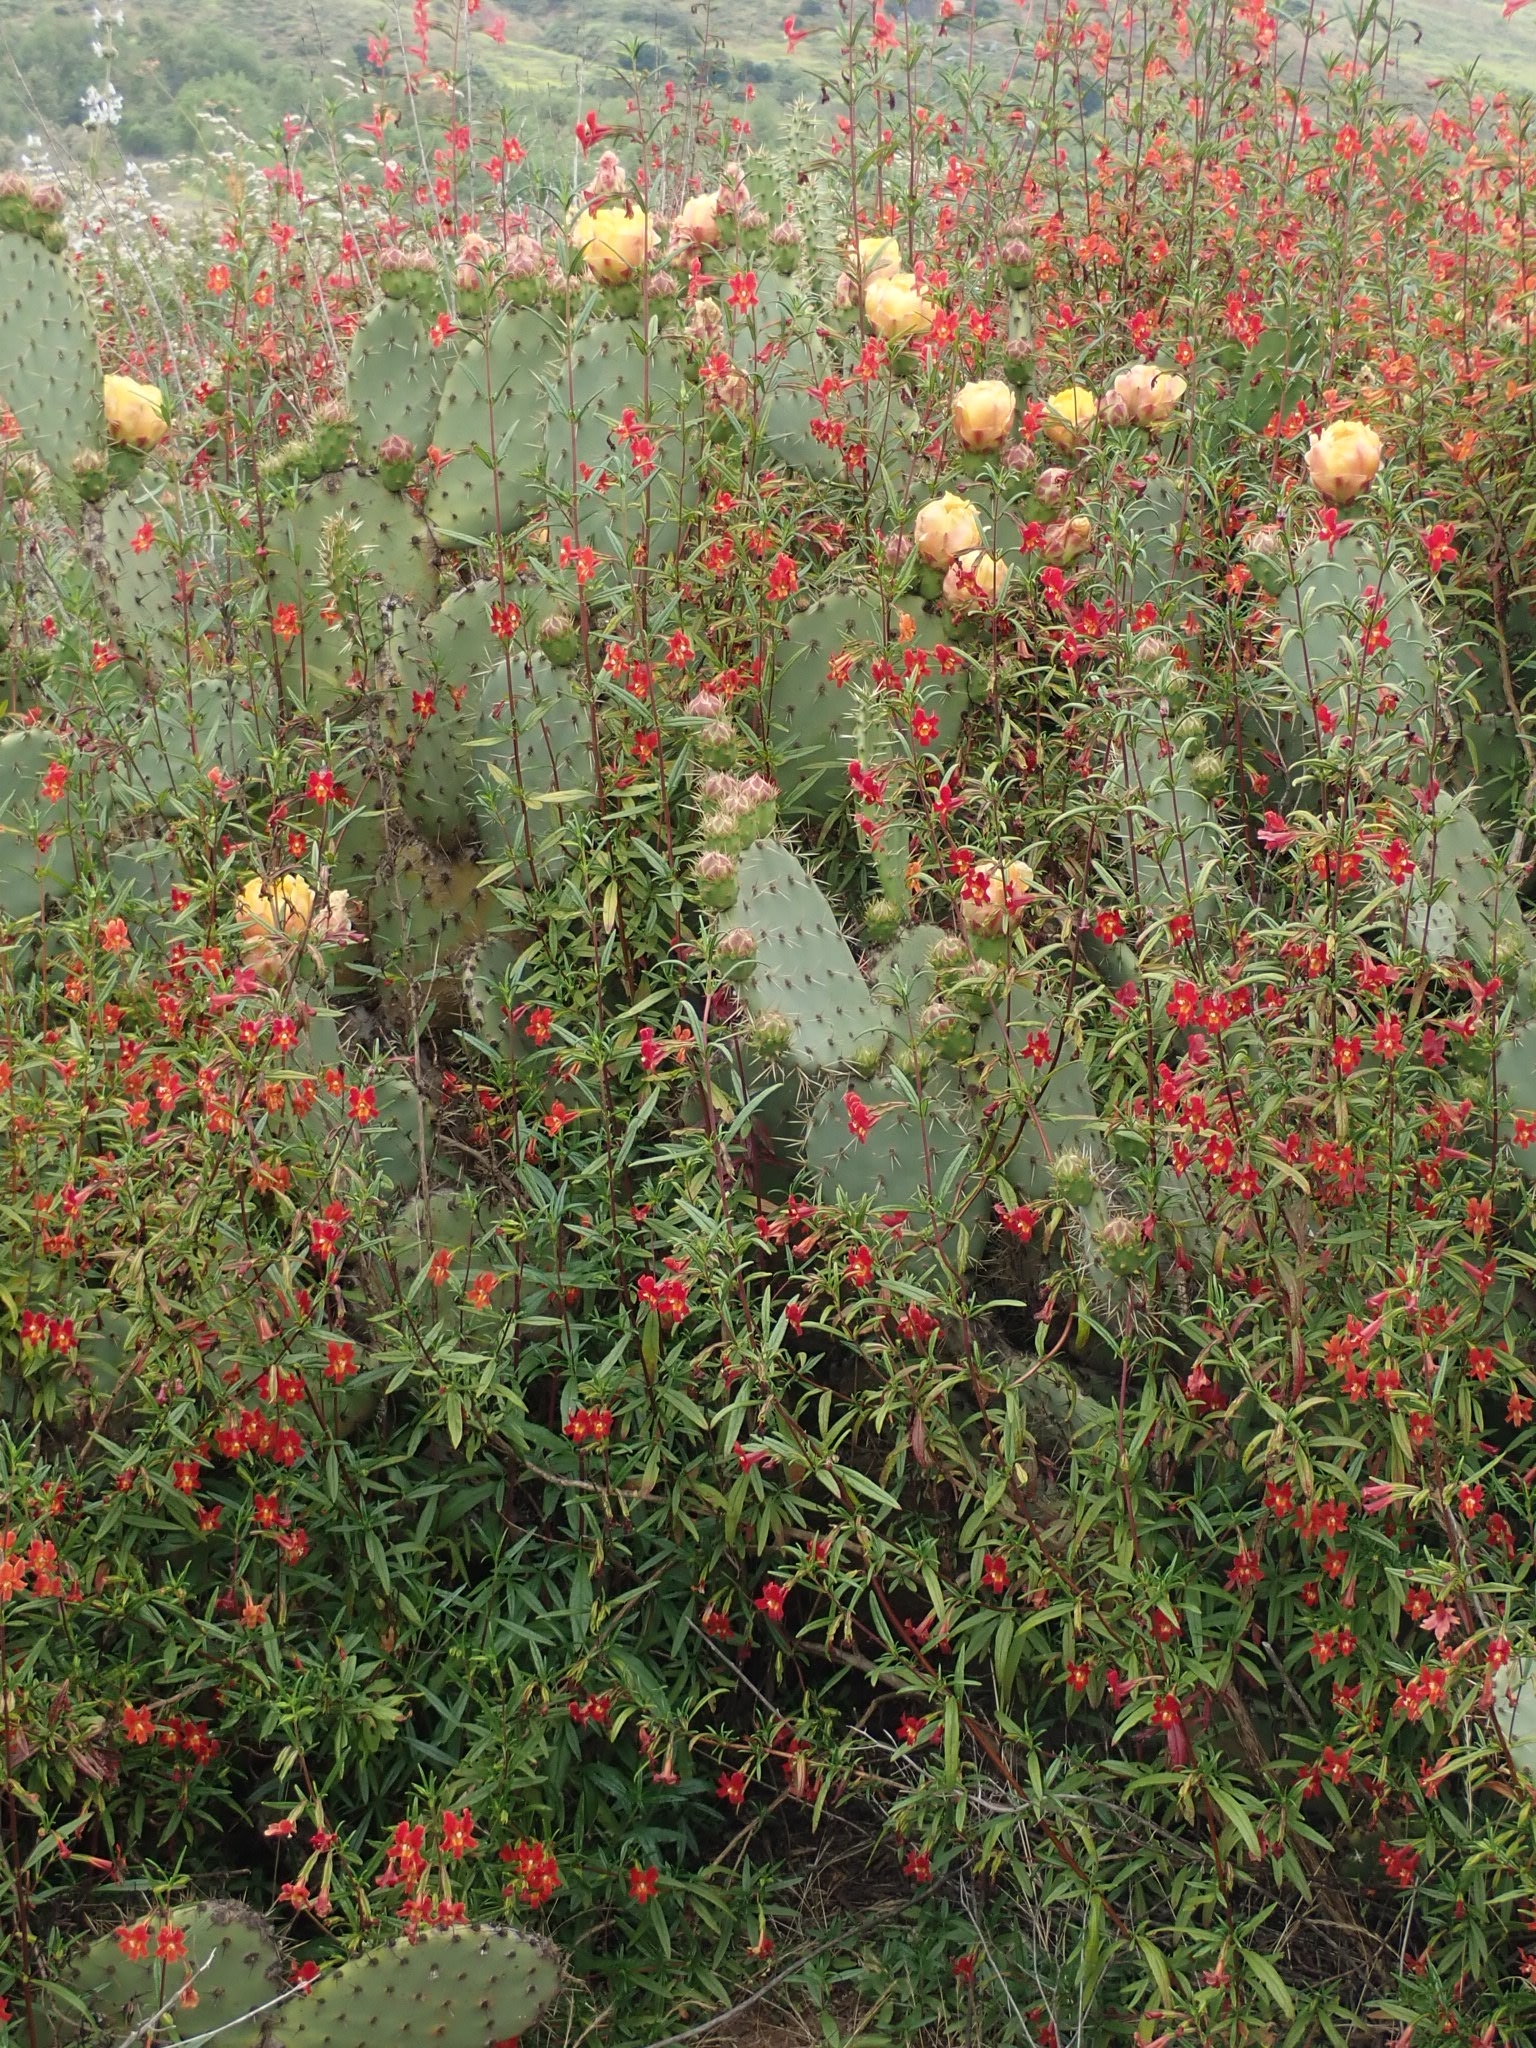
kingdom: Plantae
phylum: Tracheophyta
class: Magnoliopsida
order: Lamiales
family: Phrymaceae
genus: Diplacus
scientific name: Diplacus puniceus
